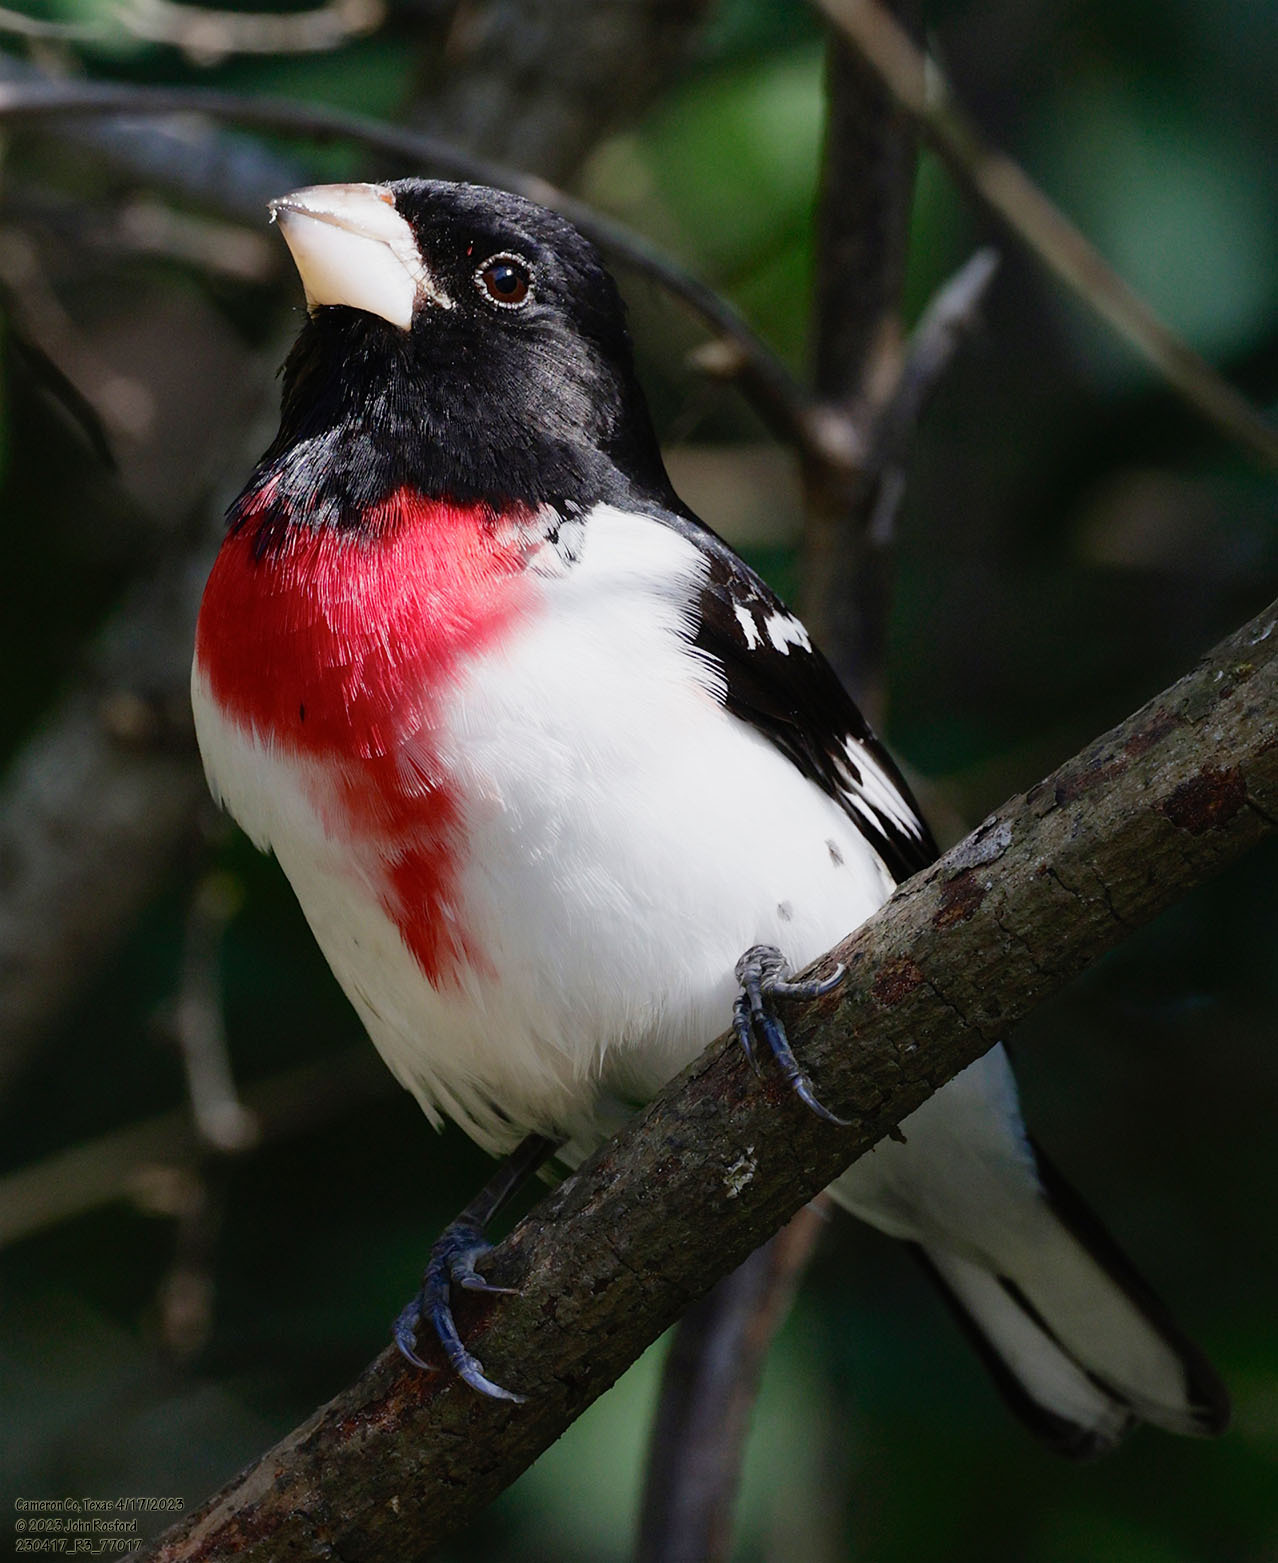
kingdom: Animalia
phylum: Chordata
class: Aves
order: Passeriformes
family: Cardinalidae
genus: Pheucticus
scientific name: Pheucticus ludovicianus
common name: Rose-breasted grosbeak
